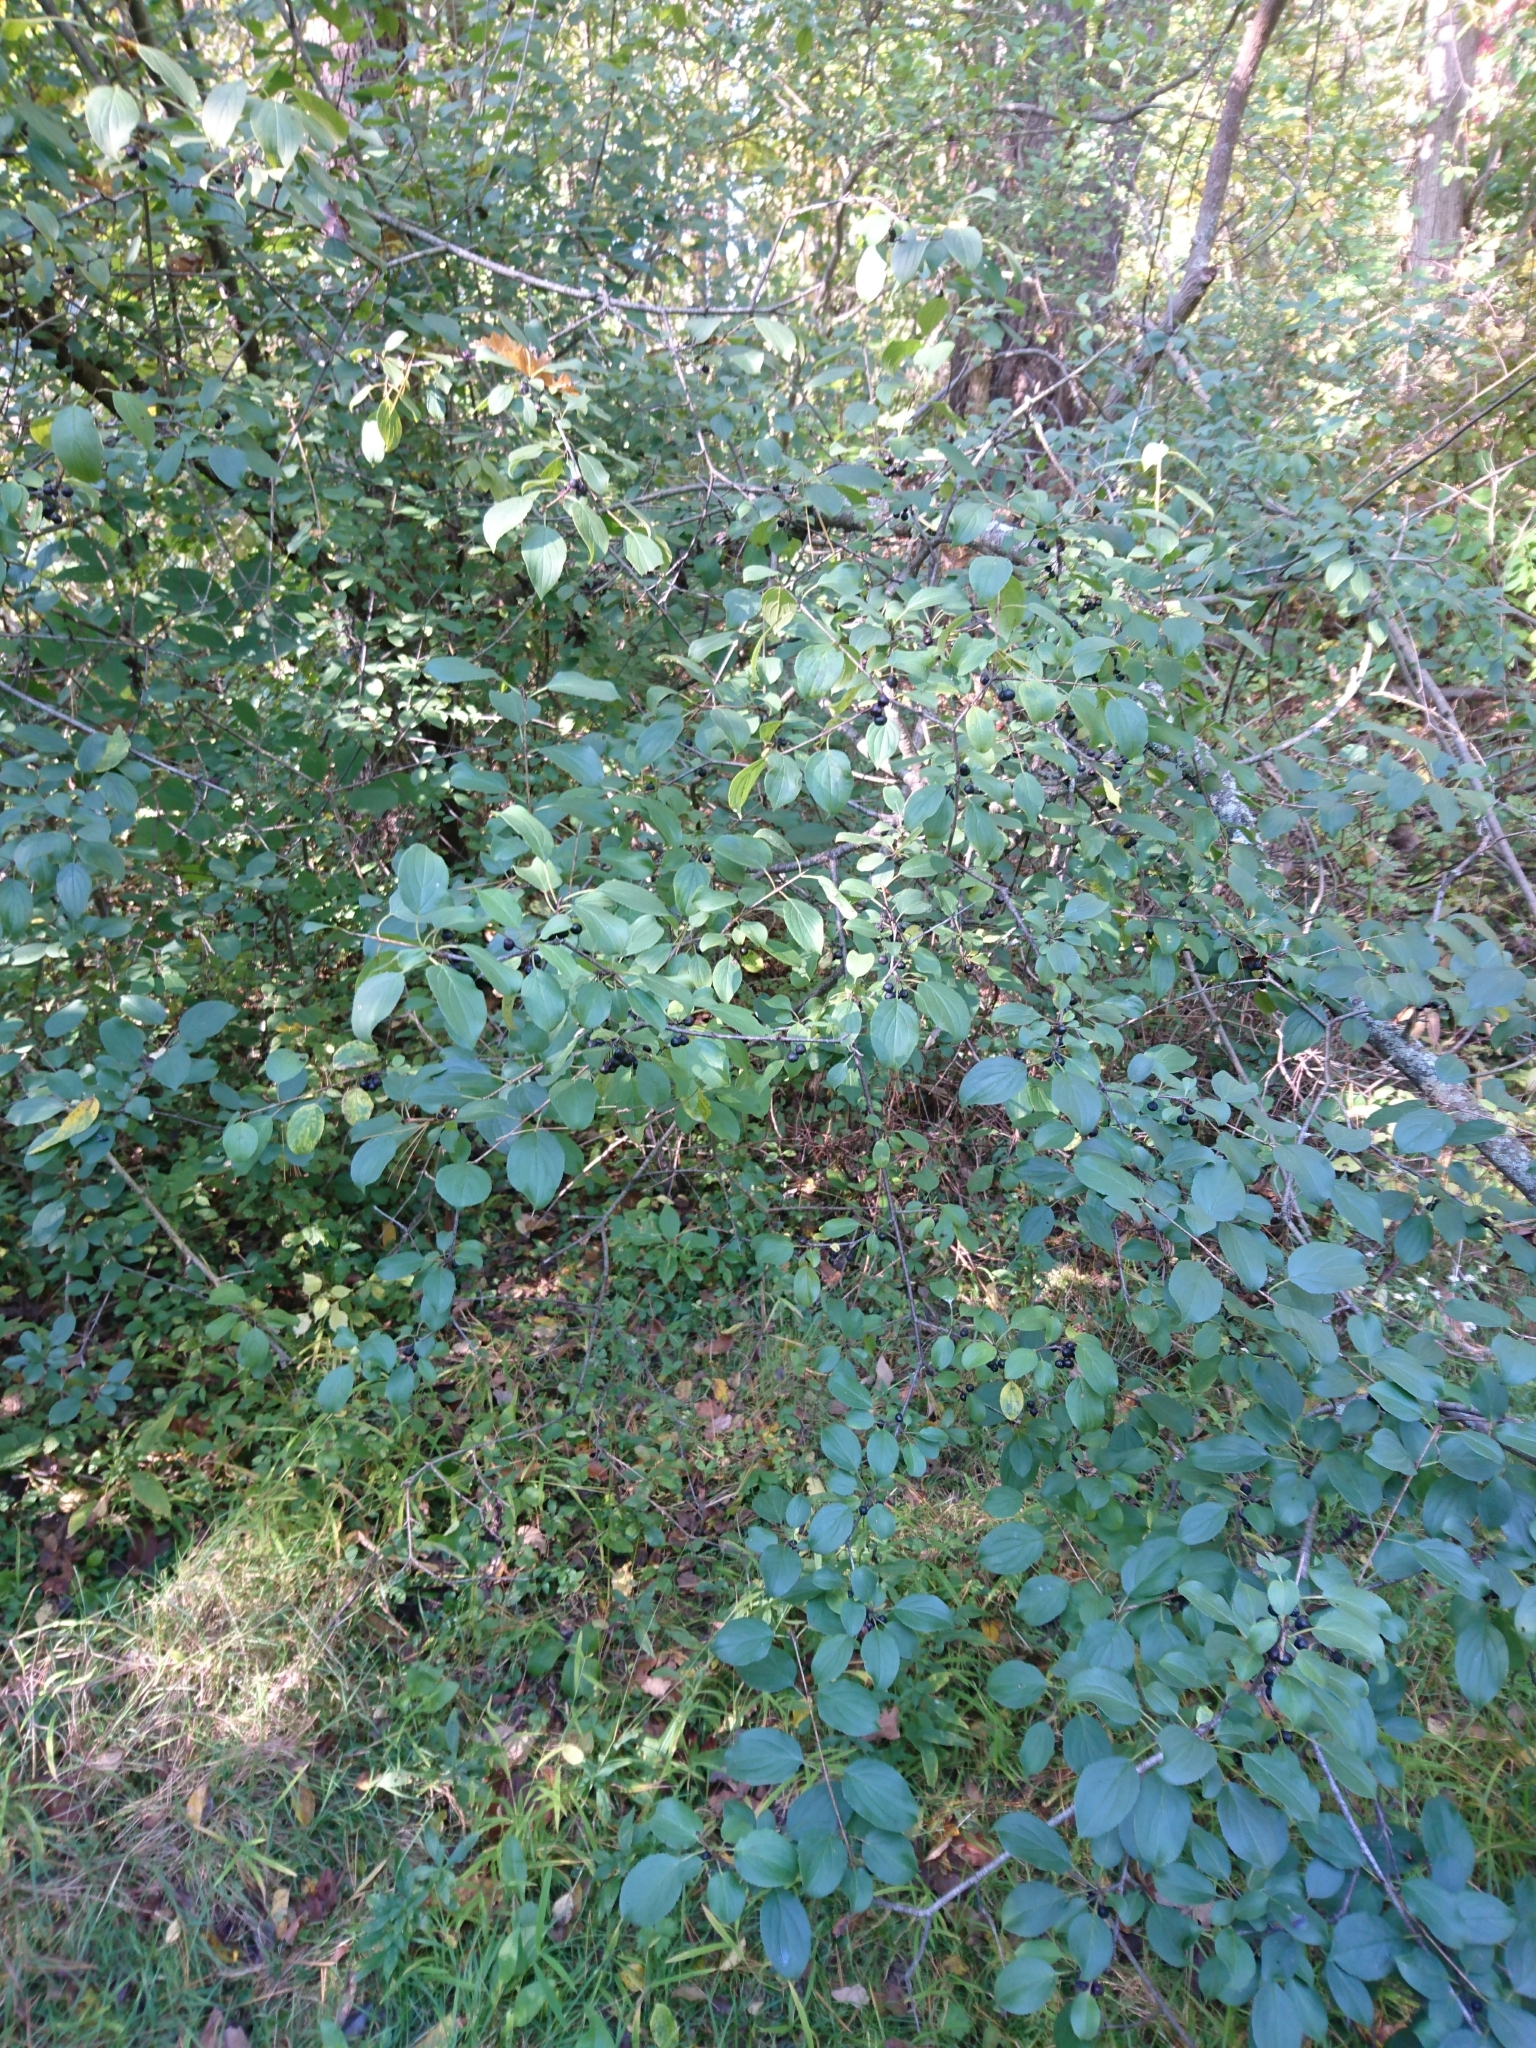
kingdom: Plantae
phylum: Tracheophyta
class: Magnoliopsida
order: Rosales
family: Rhamnaceae
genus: Rhamnus
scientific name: Rhamnus cathartica
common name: Common buckthorn
